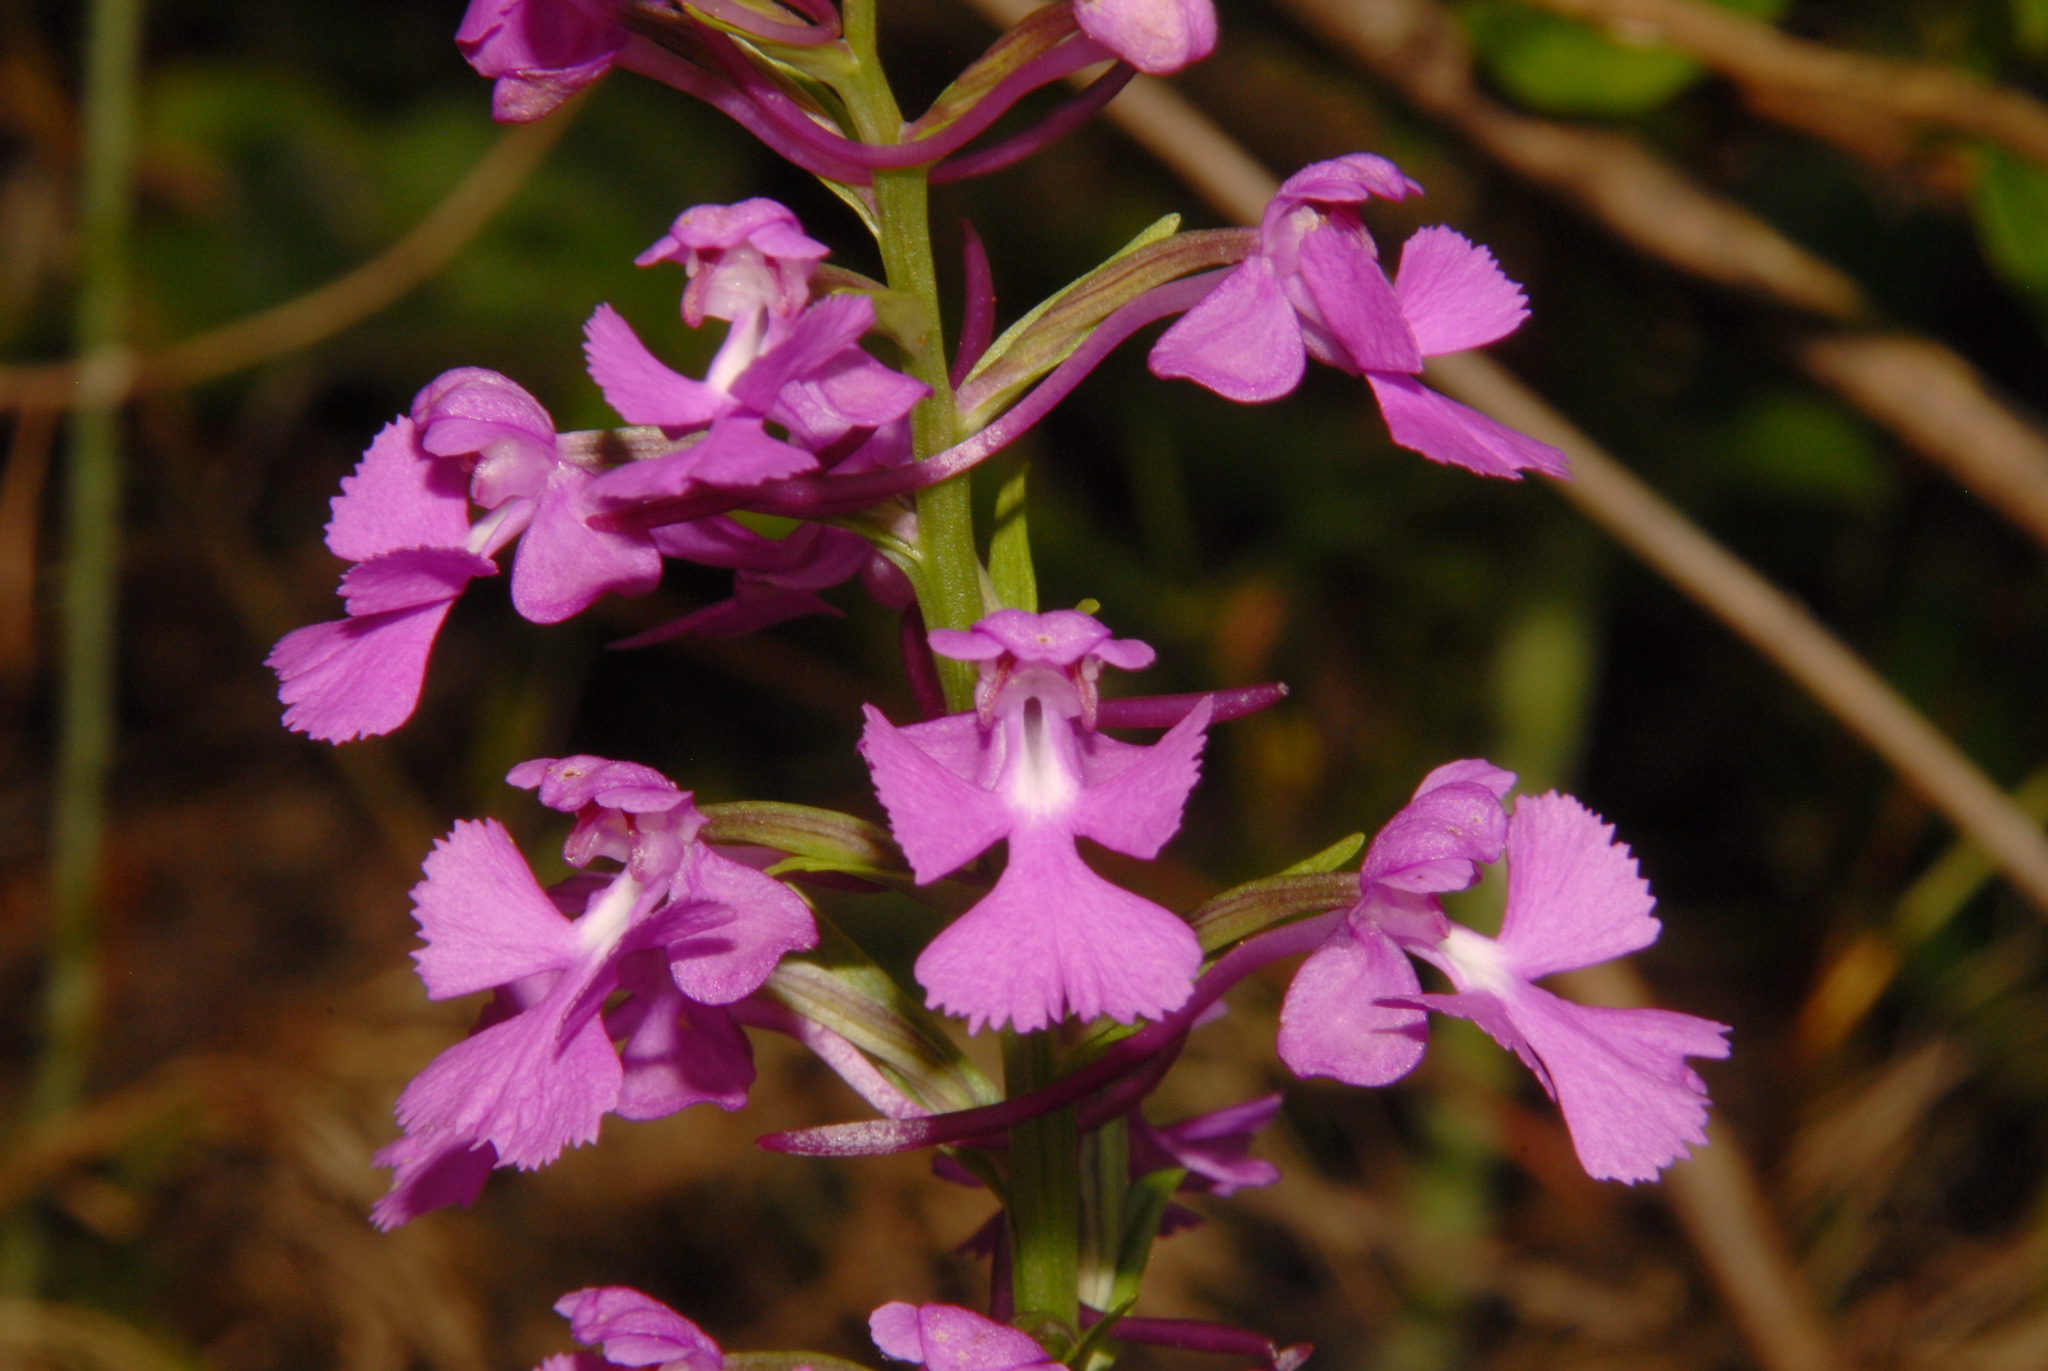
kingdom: Plantae
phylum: Tracheophyta
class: Liliopsida
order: Asparagales
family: Orchidaceae
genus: Platanthera
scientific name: Platanthera peramoena
